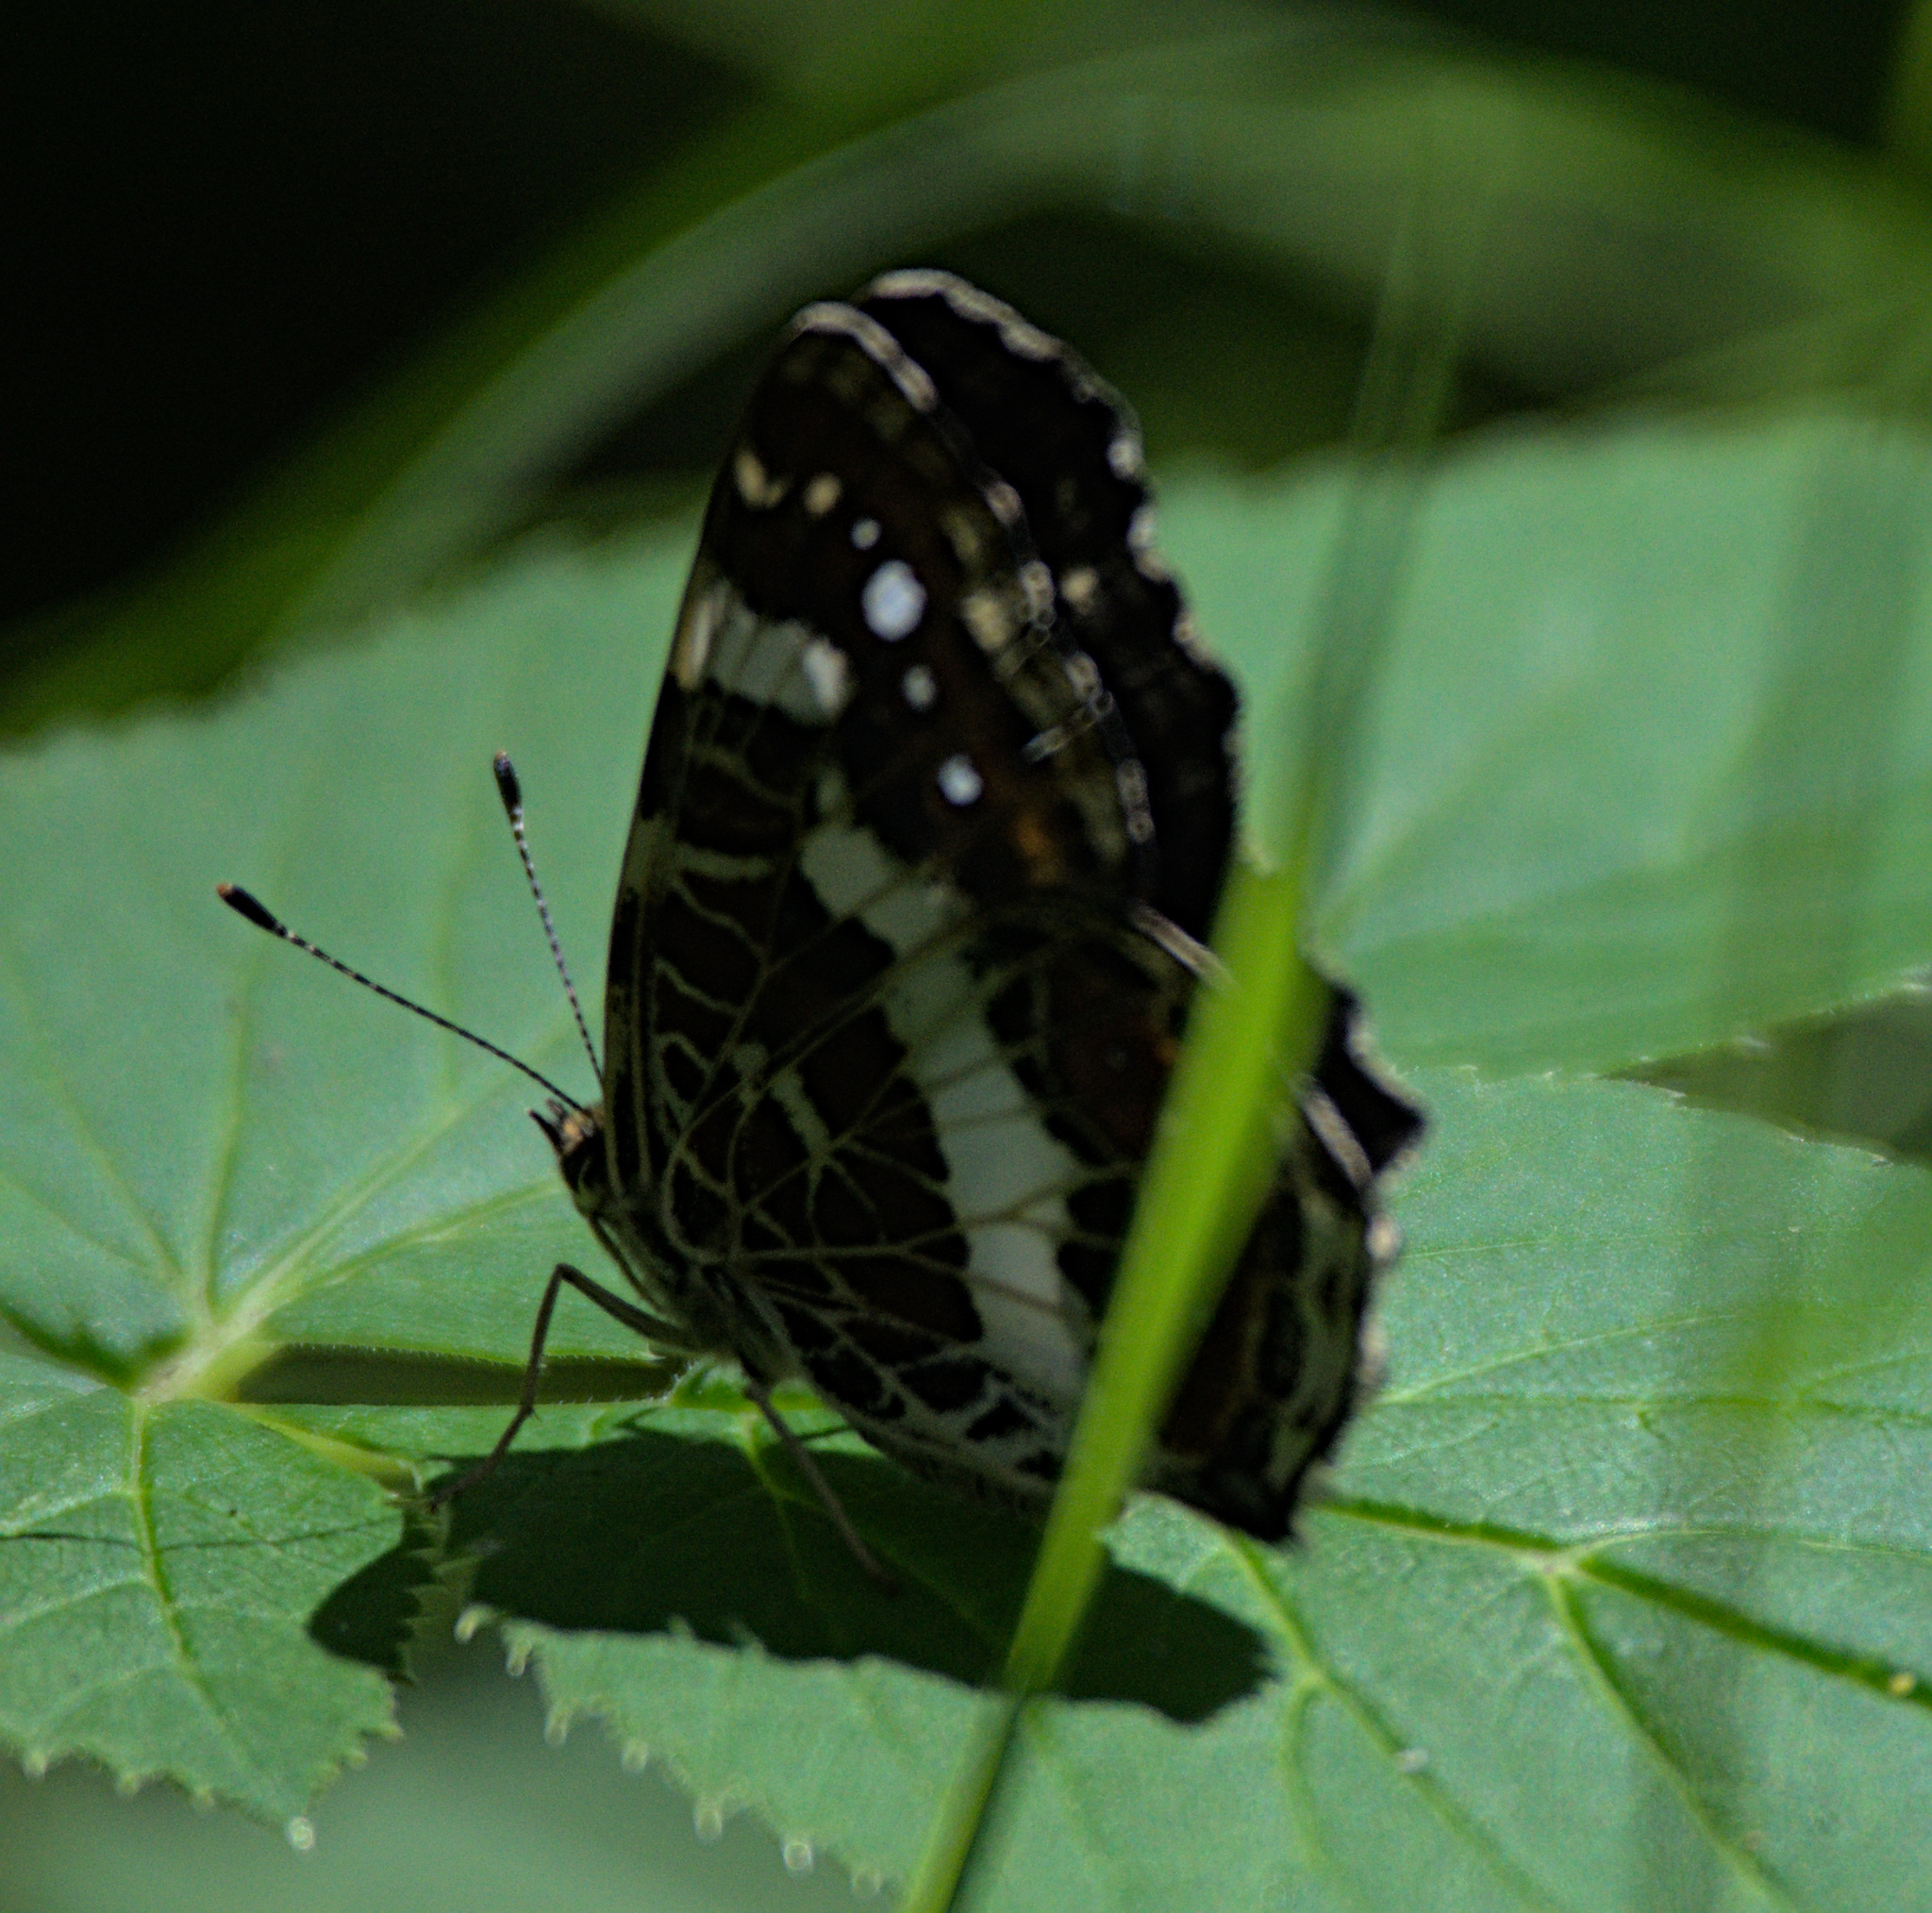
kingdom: Animalia
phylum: Arthropoda
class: Insecta
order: Lepidoptera
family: Nymphalidae
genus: Araschnia
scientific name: Araschnia levana
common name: Map butterfly
